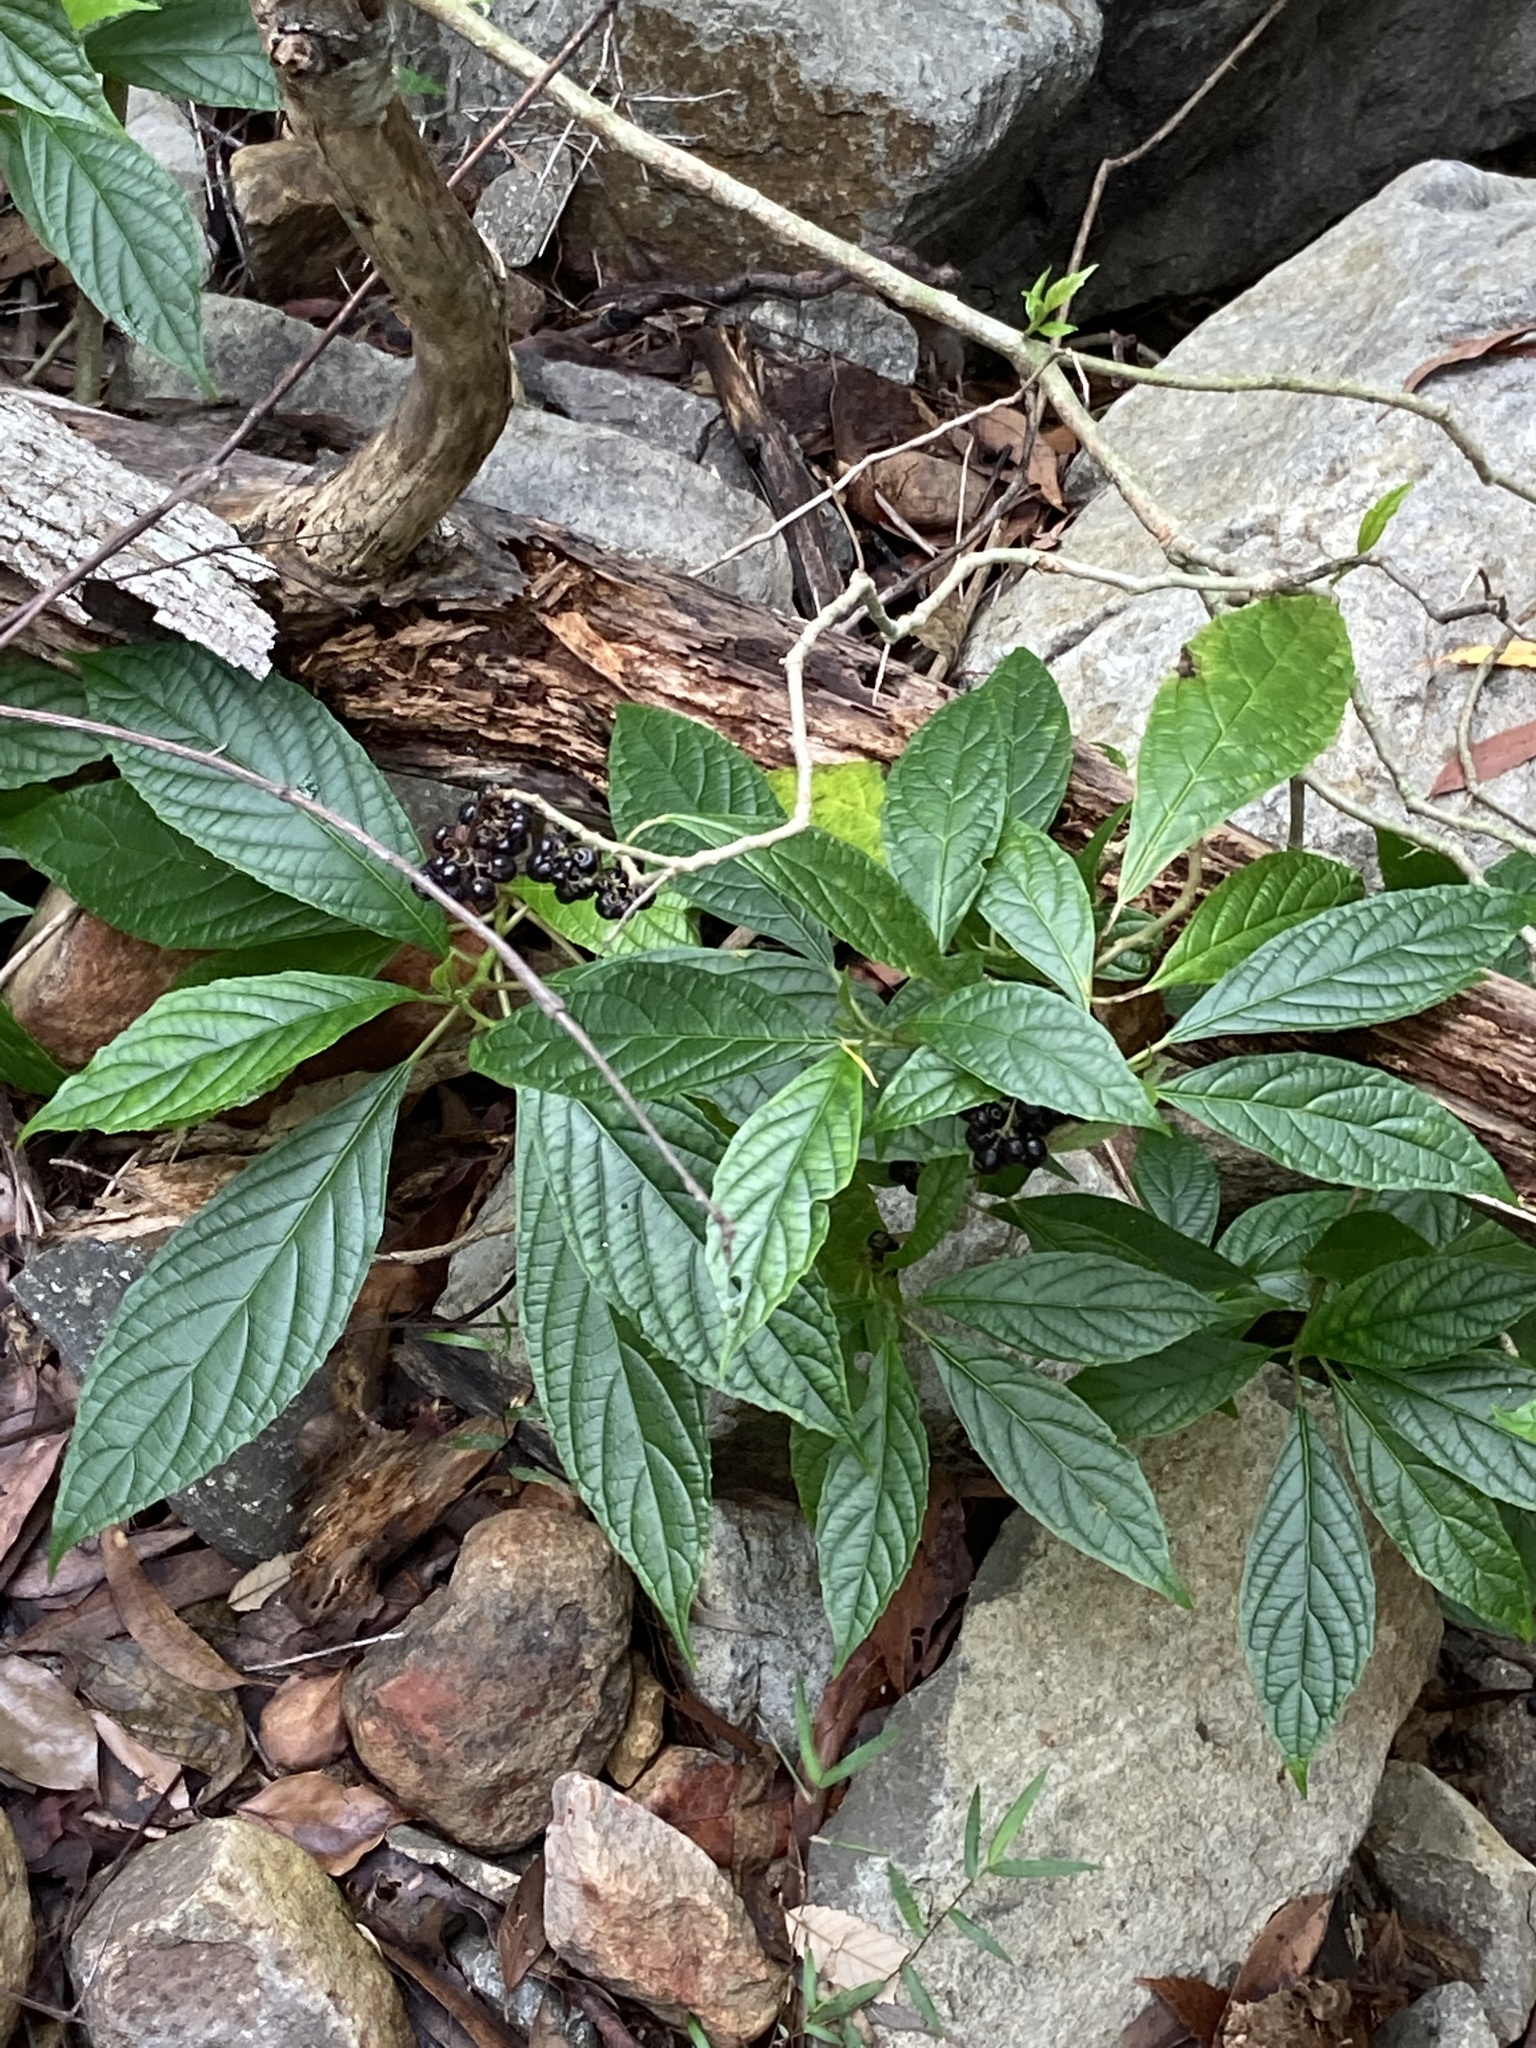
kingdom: Plantae
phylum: Tracheophyta
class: Magnoliopsida
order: Asterales
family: Rousseaceae
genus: Abrophyllum
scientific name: Abrophyllum ornans
